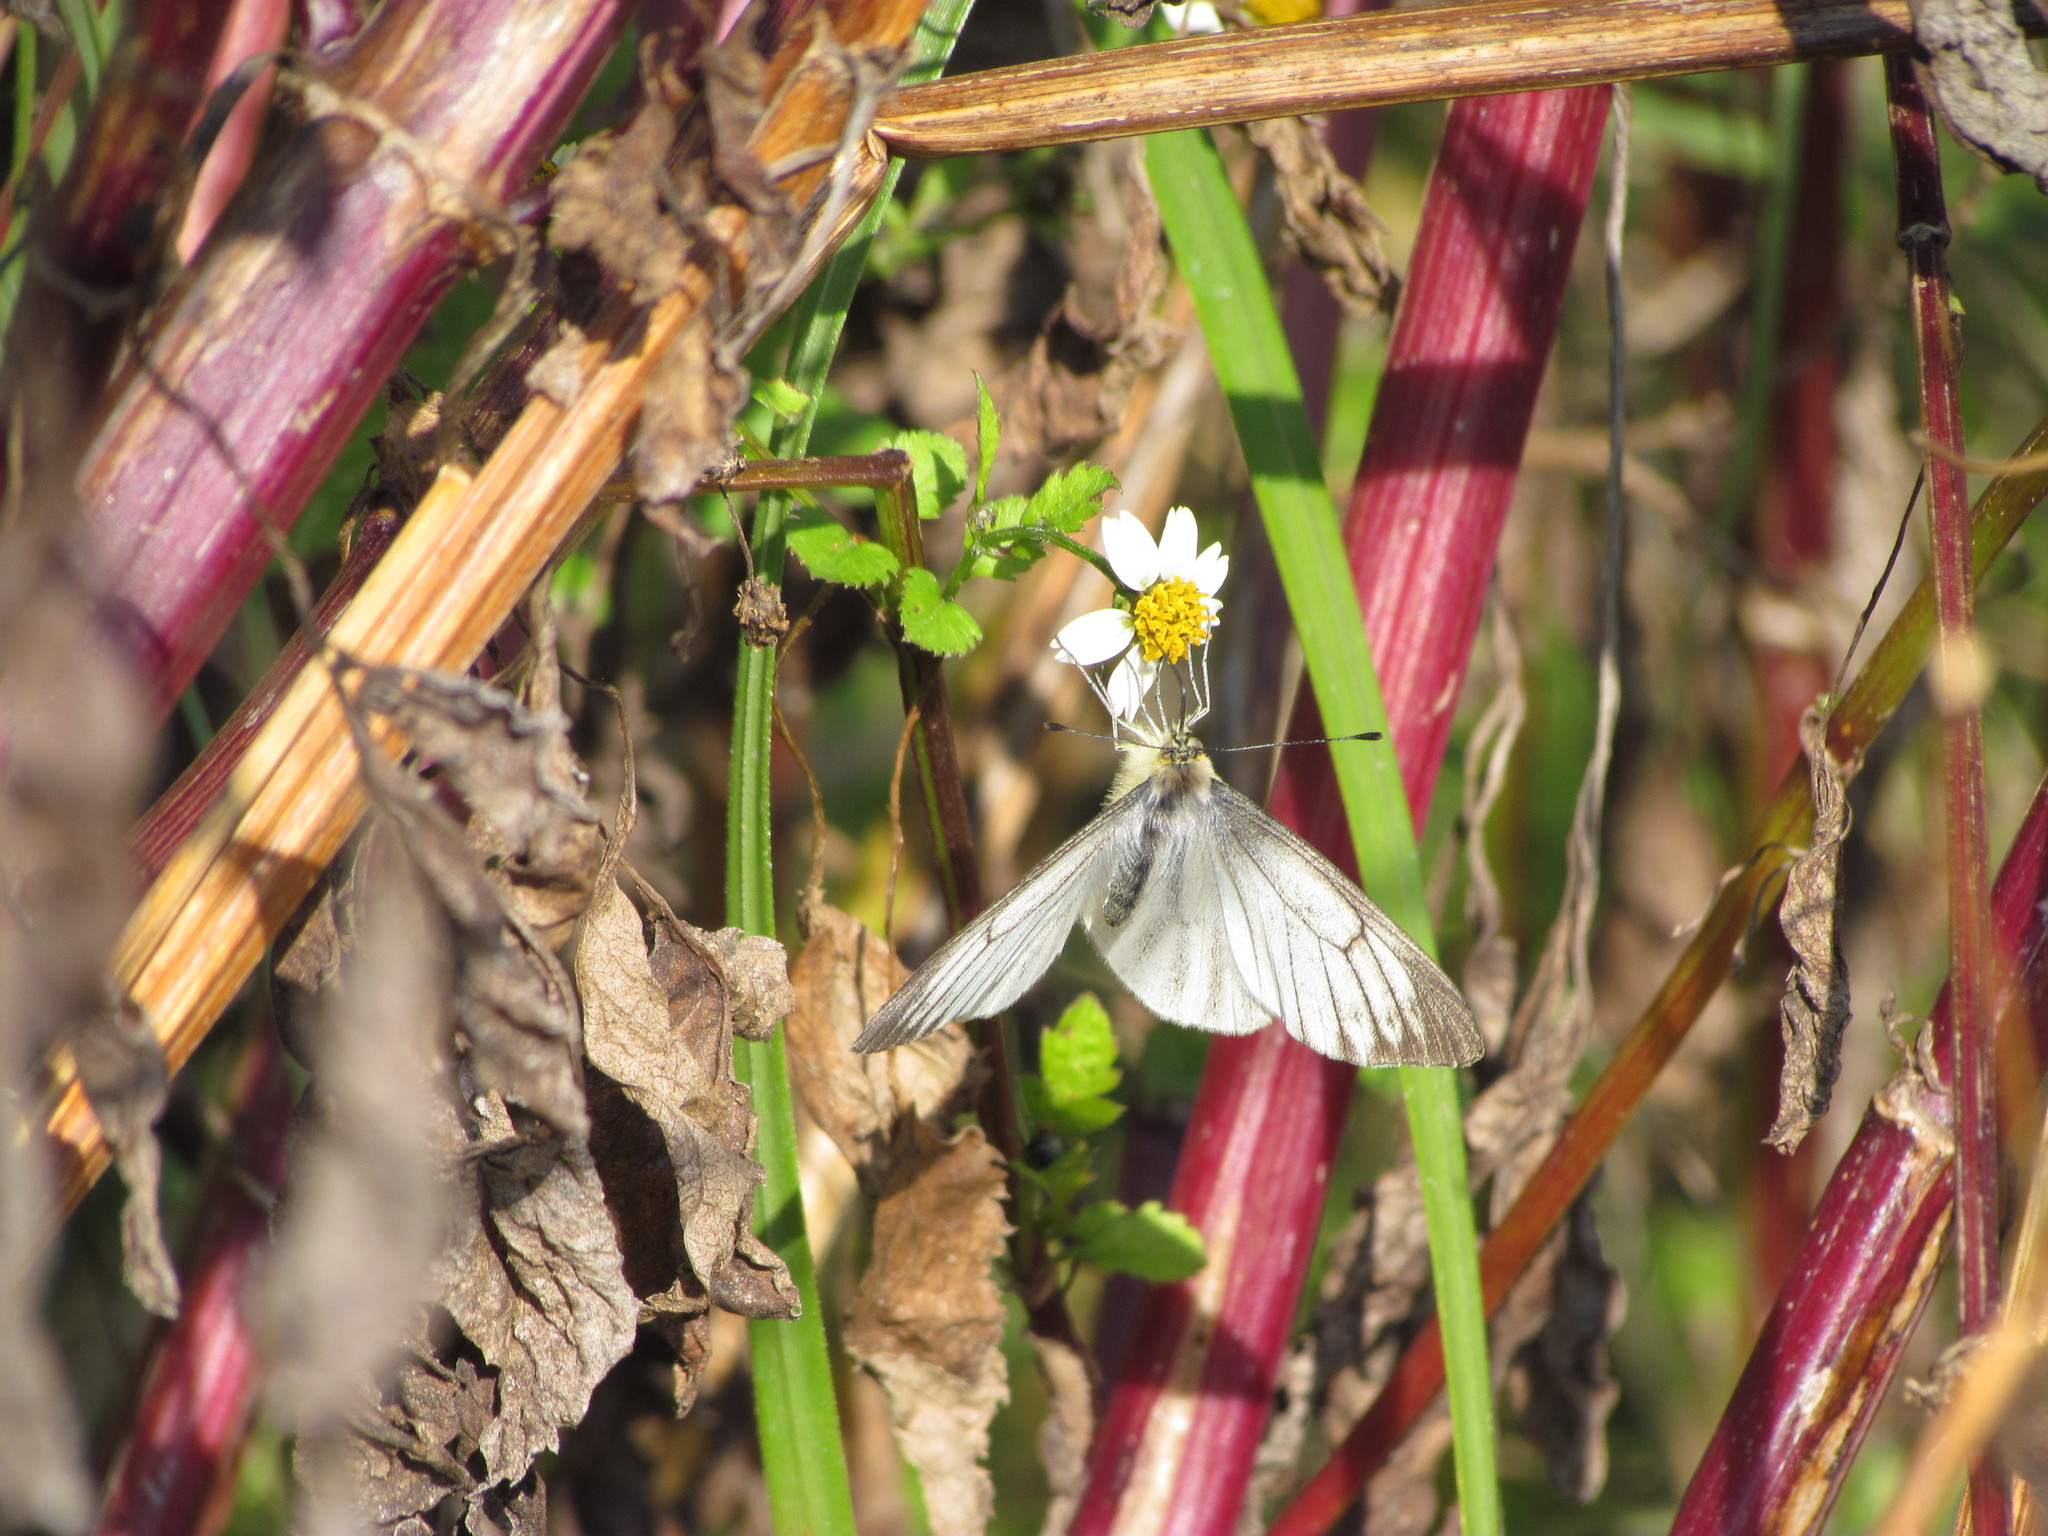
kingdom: Animalia
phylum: Arthropoda
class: Insecta
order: Lepidoptera
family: Pieridae
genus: Theochila
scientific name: Theochila maenacte
